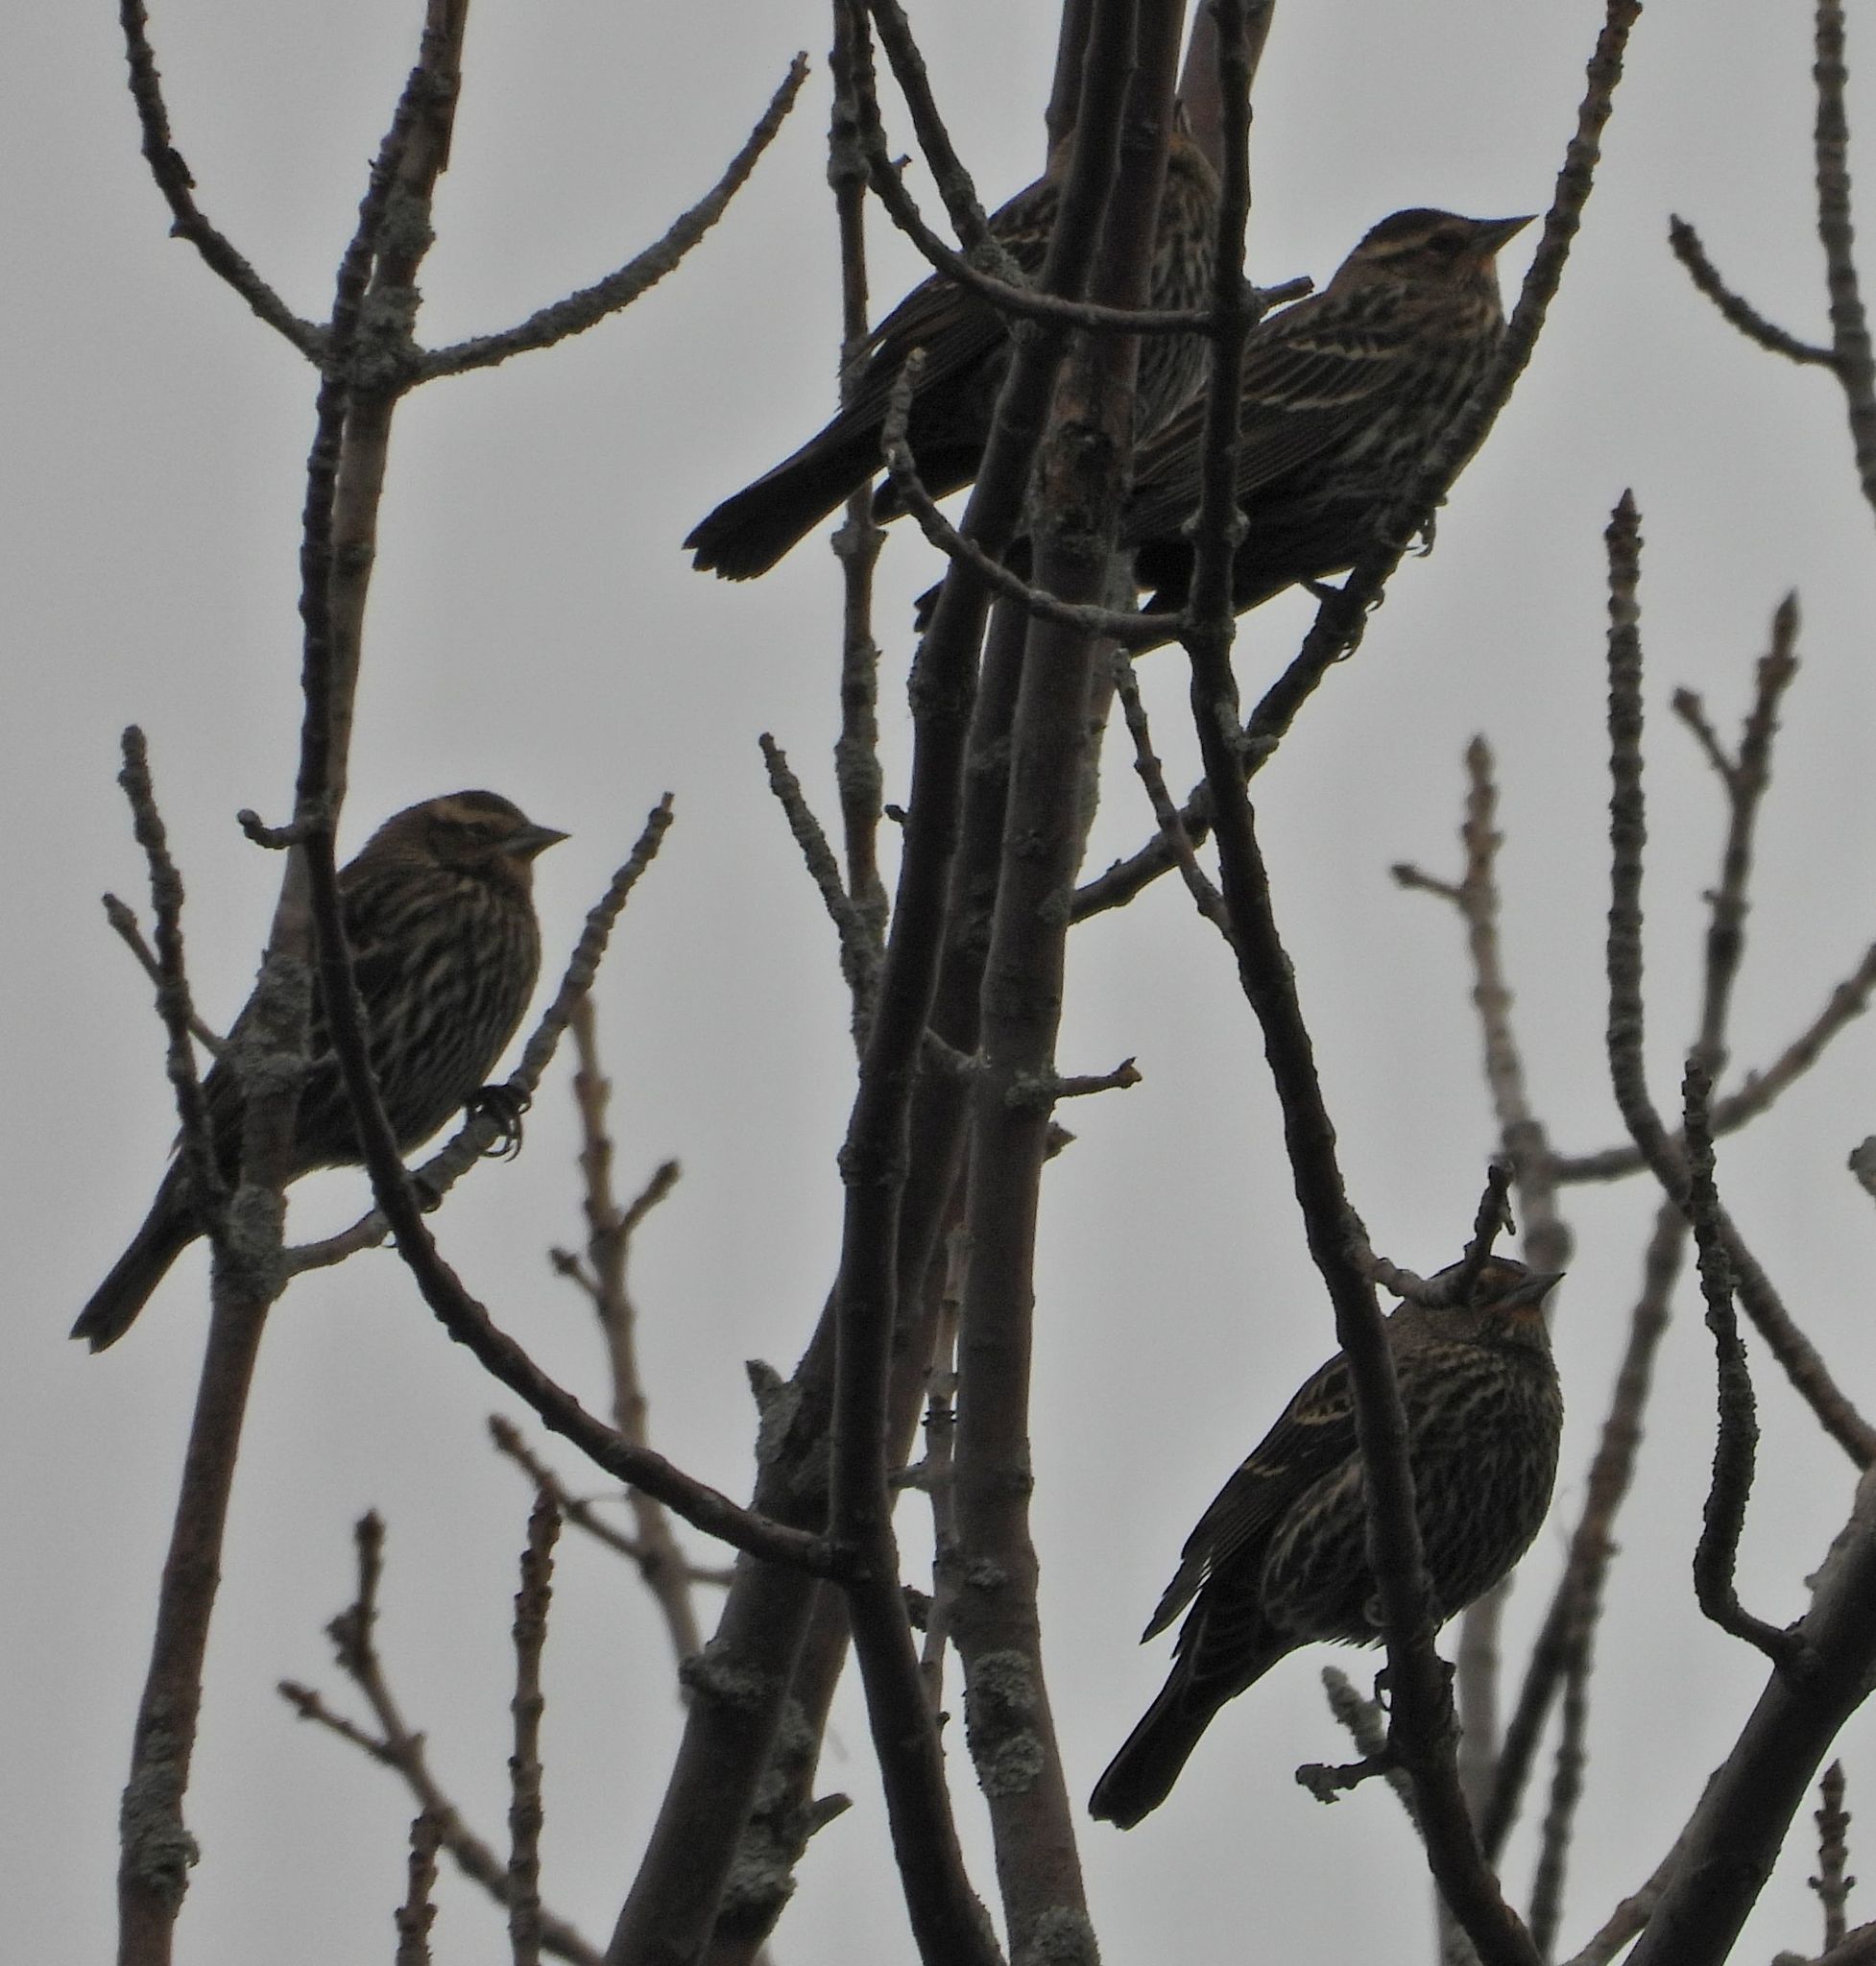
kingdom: Animalia
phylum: Chordata
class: Aves
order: Passeriformes
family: Icteridae
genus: Agelaius
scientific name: Agelaius phoeniceus
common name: Red-winged blackbird
